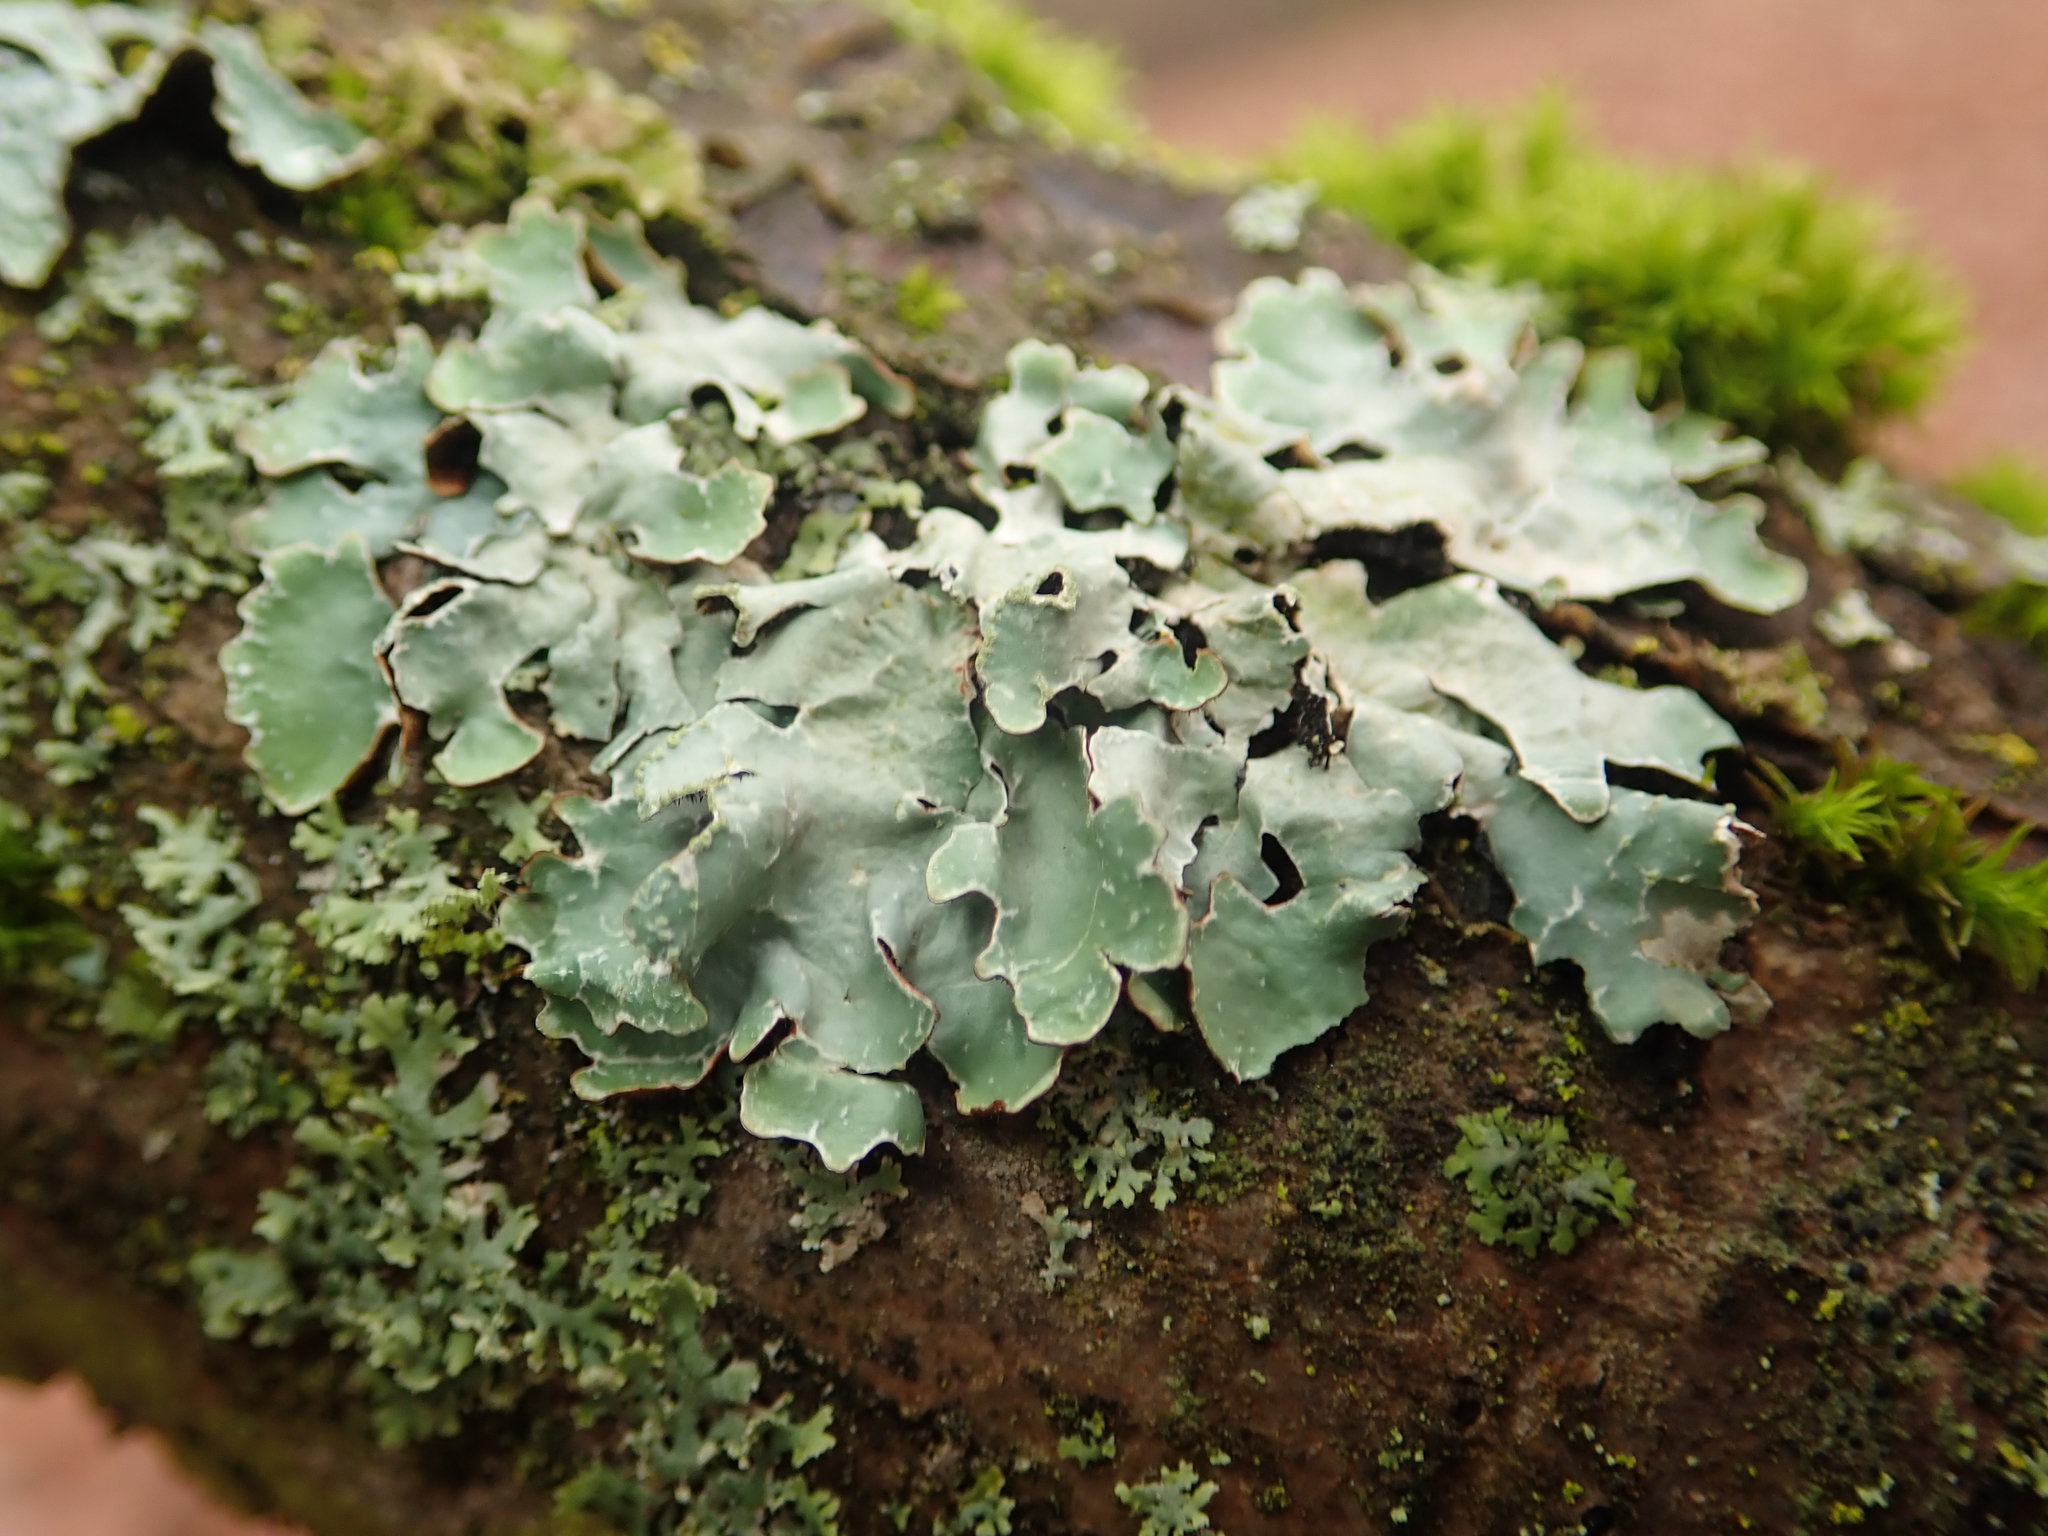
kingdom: Fungi
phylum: Ascomycota
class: Lecanoromycetes
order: Lecanorales
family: Parmeliaceae
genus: Parmelia
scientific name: Parmelia sulcata
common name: Netted shield lichen
